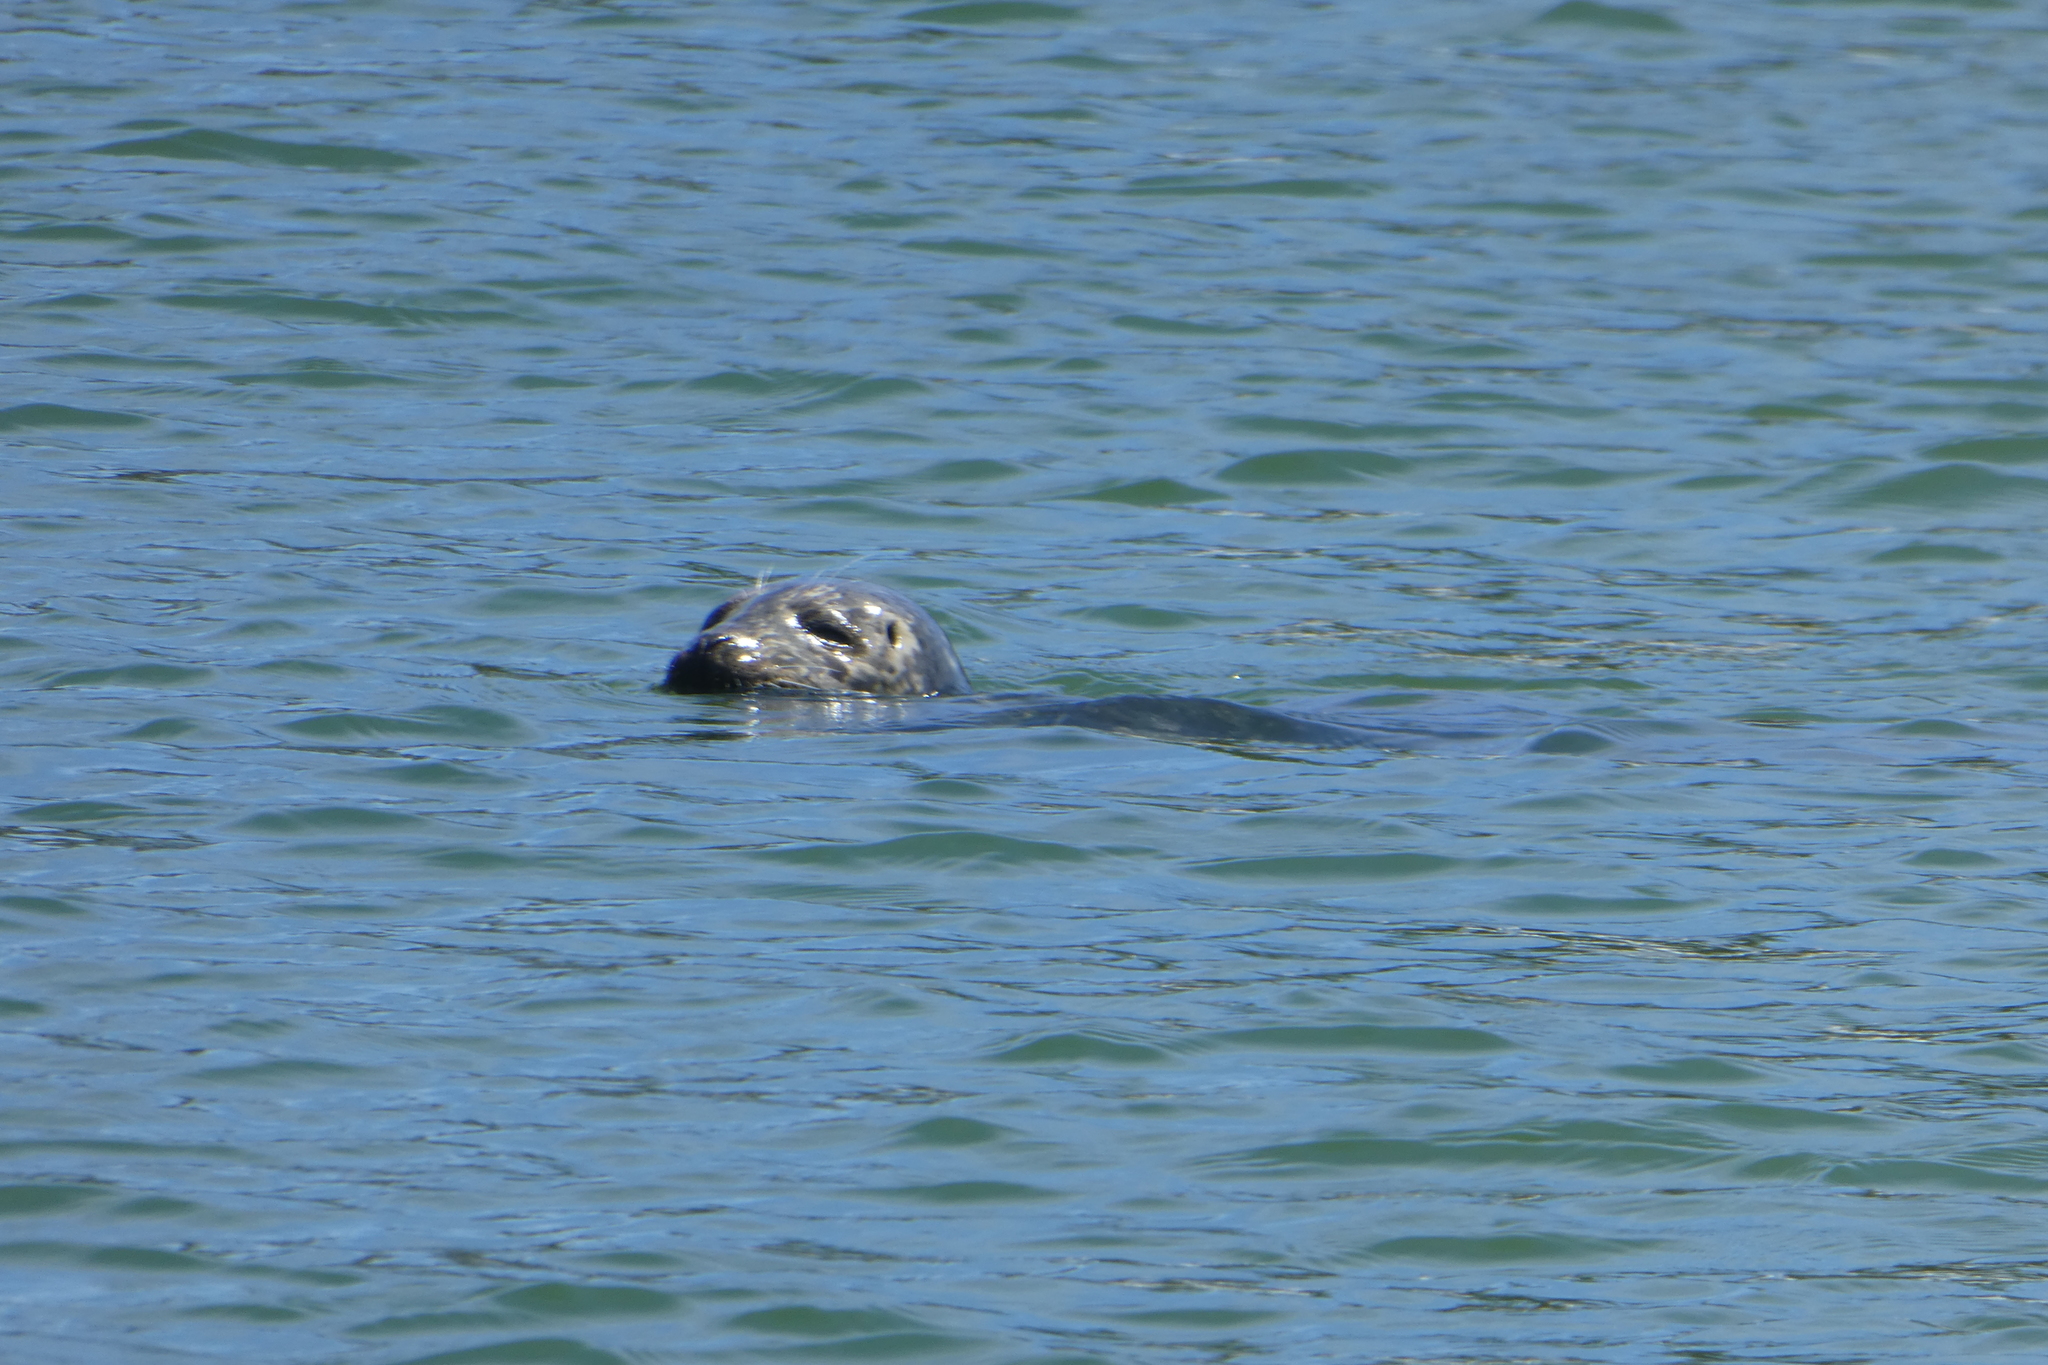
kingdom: Animalia
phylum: Chordata
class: Mammalia
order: Carnivora
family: Phocidae
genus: Phoca
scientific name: Phoca vitulina
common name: Harbor seal
